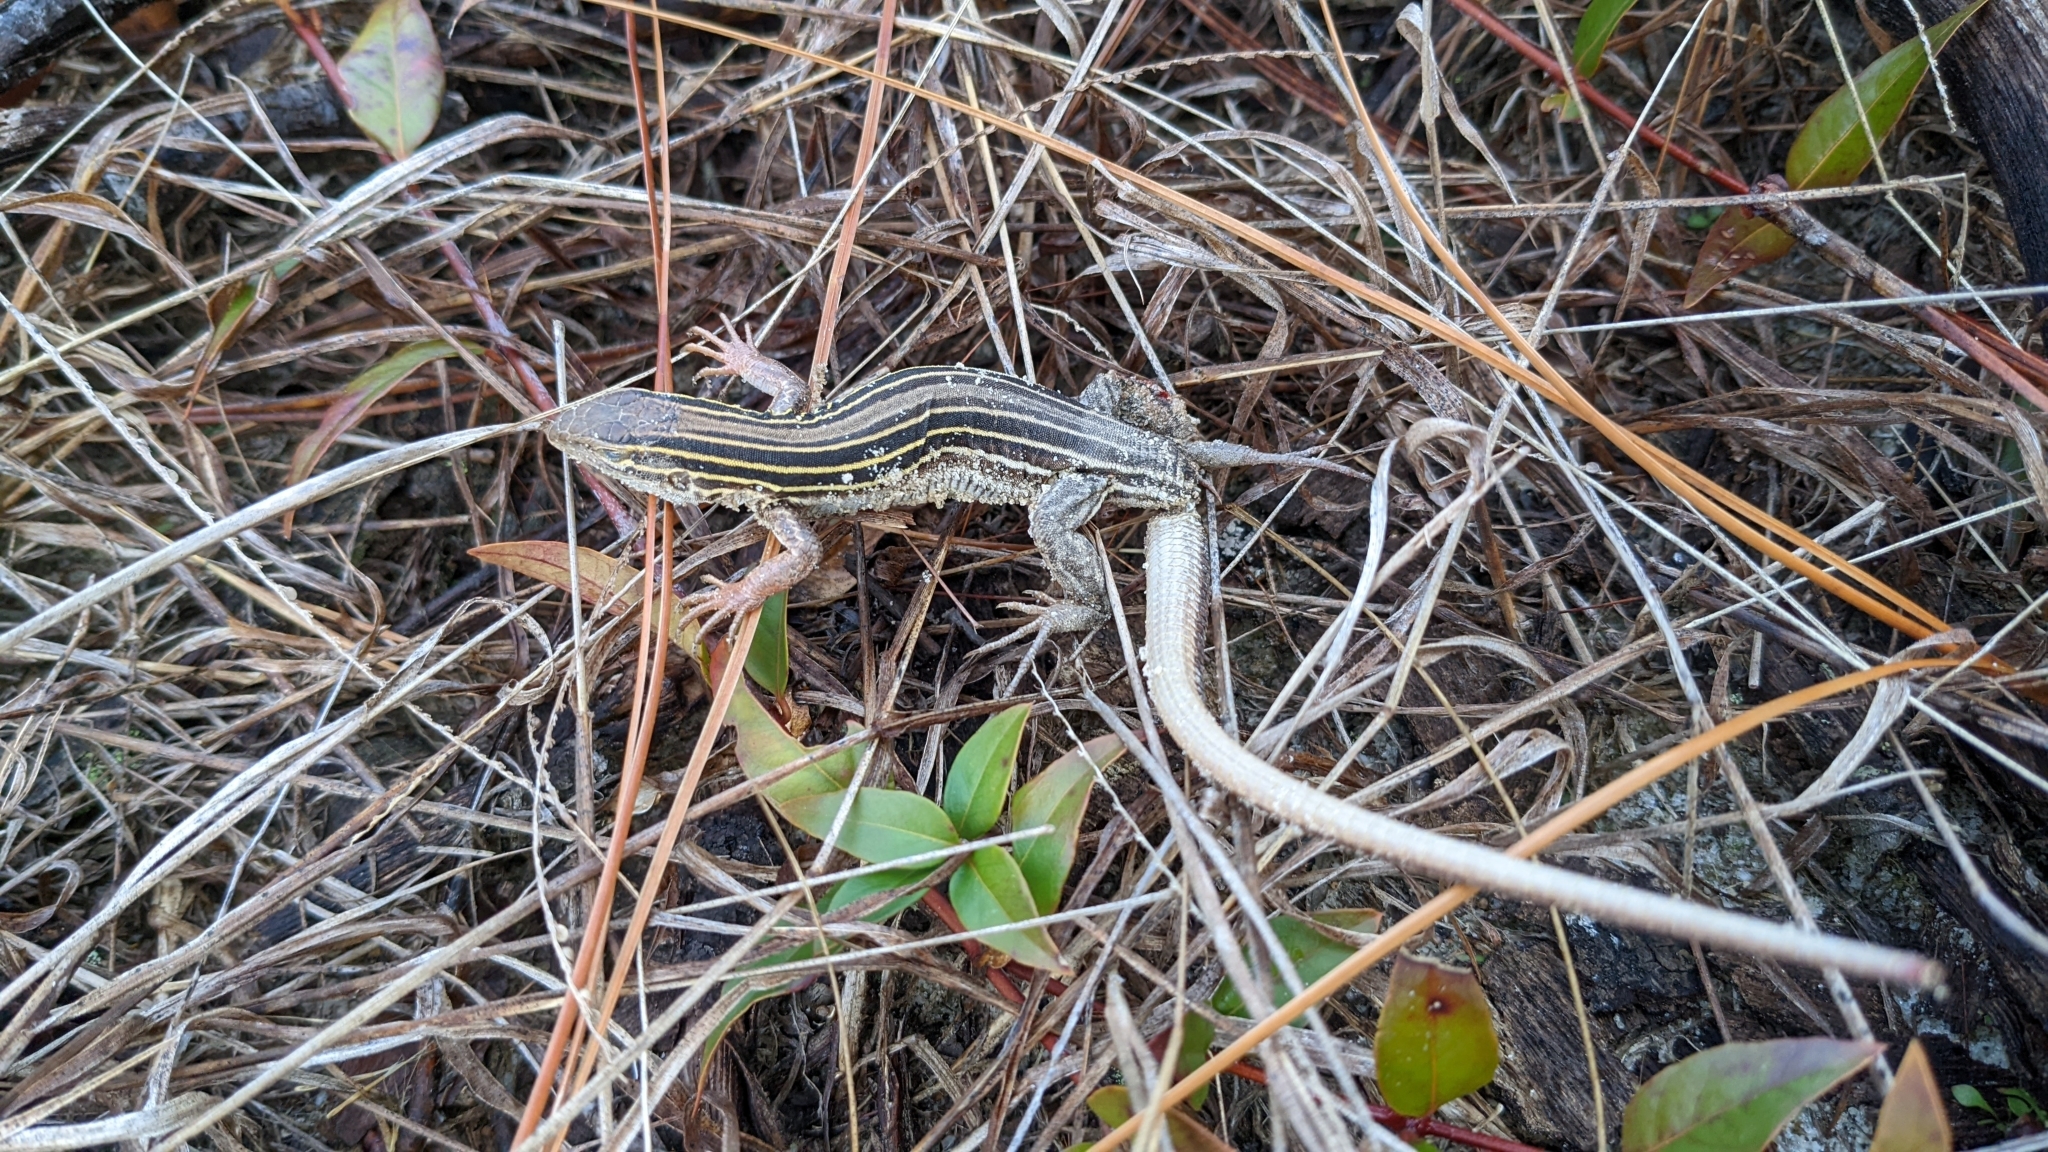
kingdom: Animalia
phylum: Chordata
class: Squamata
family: Teiidae
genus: Aspidoscelis
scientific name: Aspidoscelis sexlineatus
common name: Six-lined racerunner
